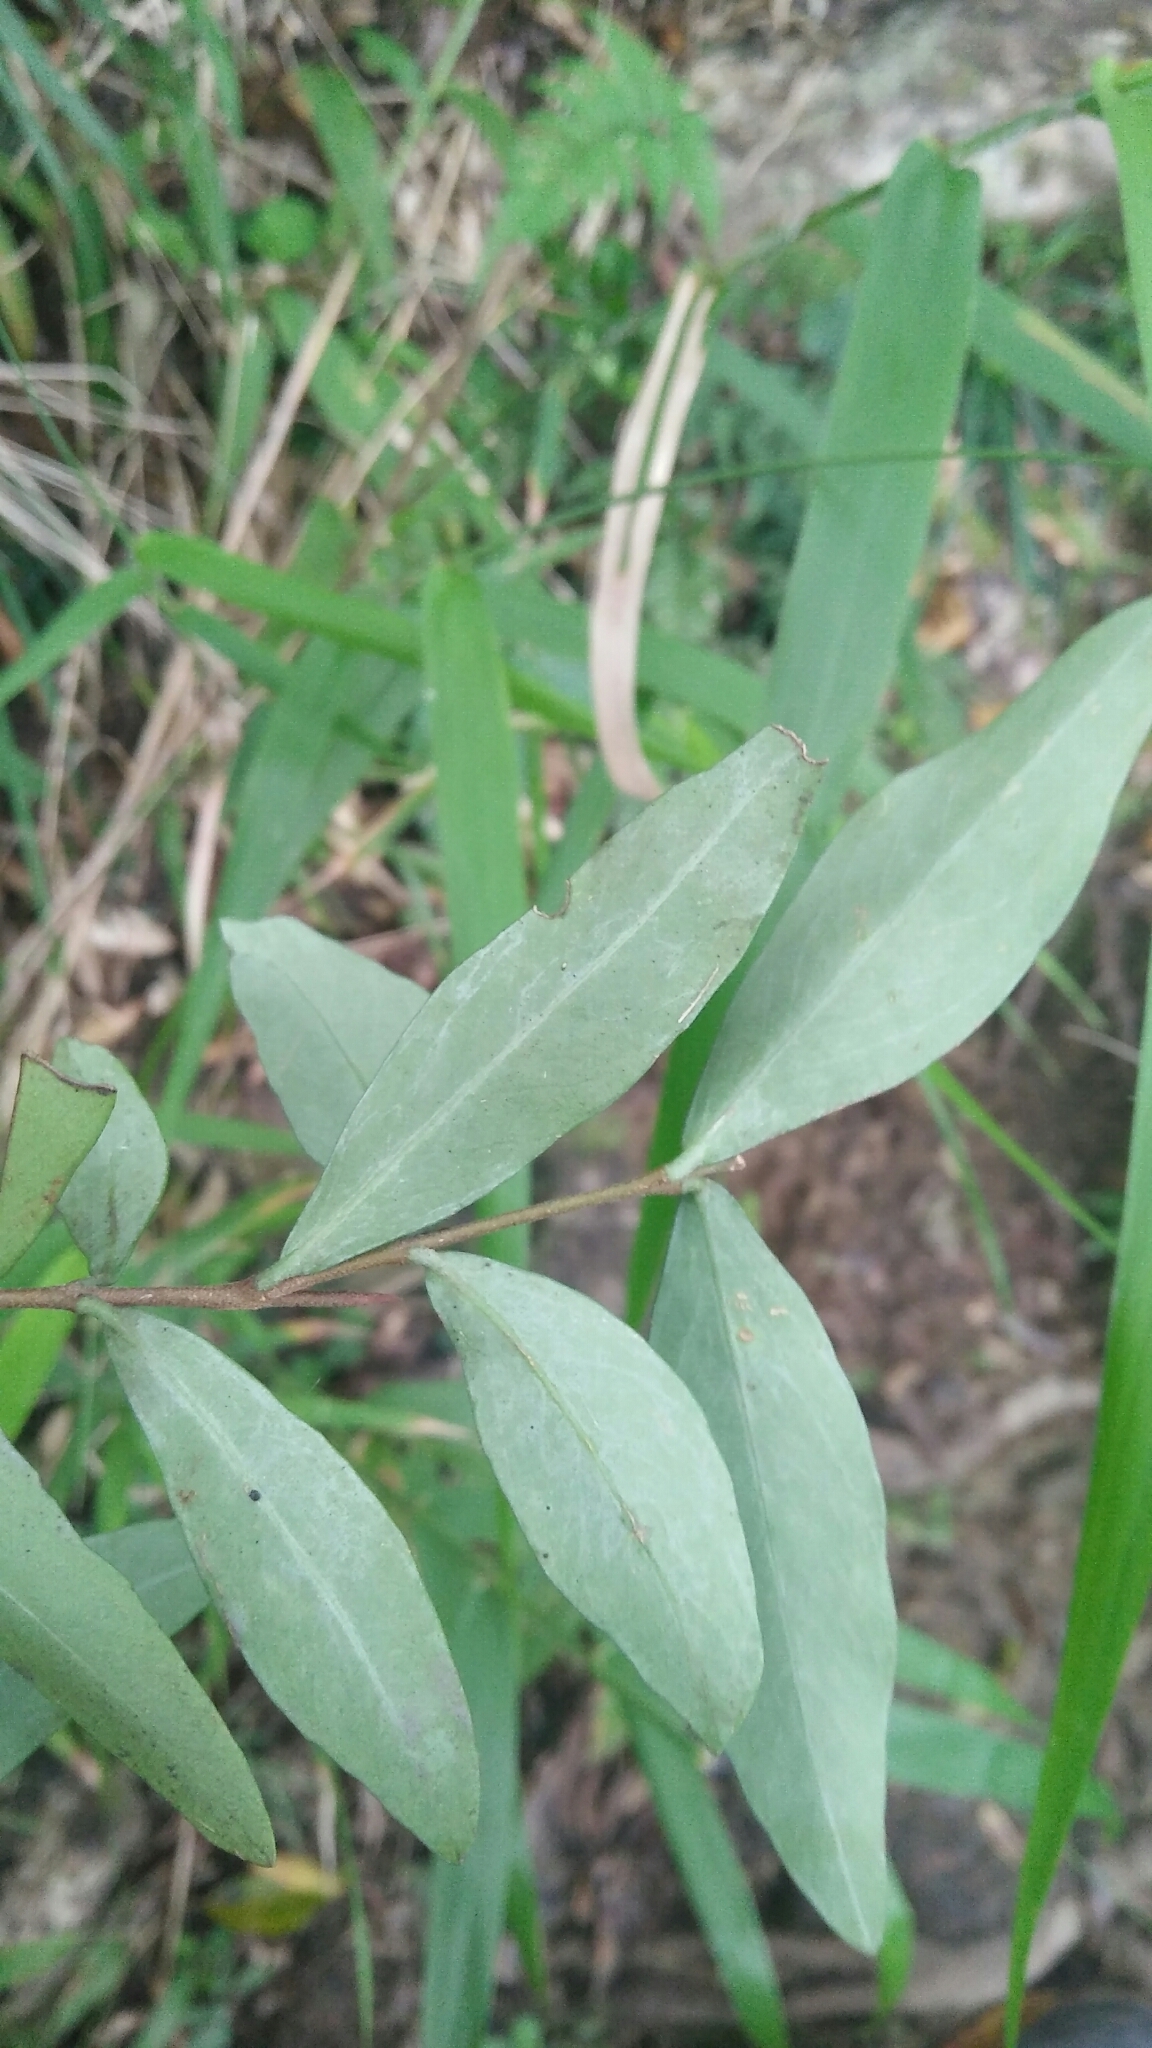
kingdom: Plantae
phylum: Tracheophyta
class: Magnoliopsida
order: Malvales
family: Thymelaeaceae
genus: Wikstroemia
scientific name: Wikstroemia lanceolata
